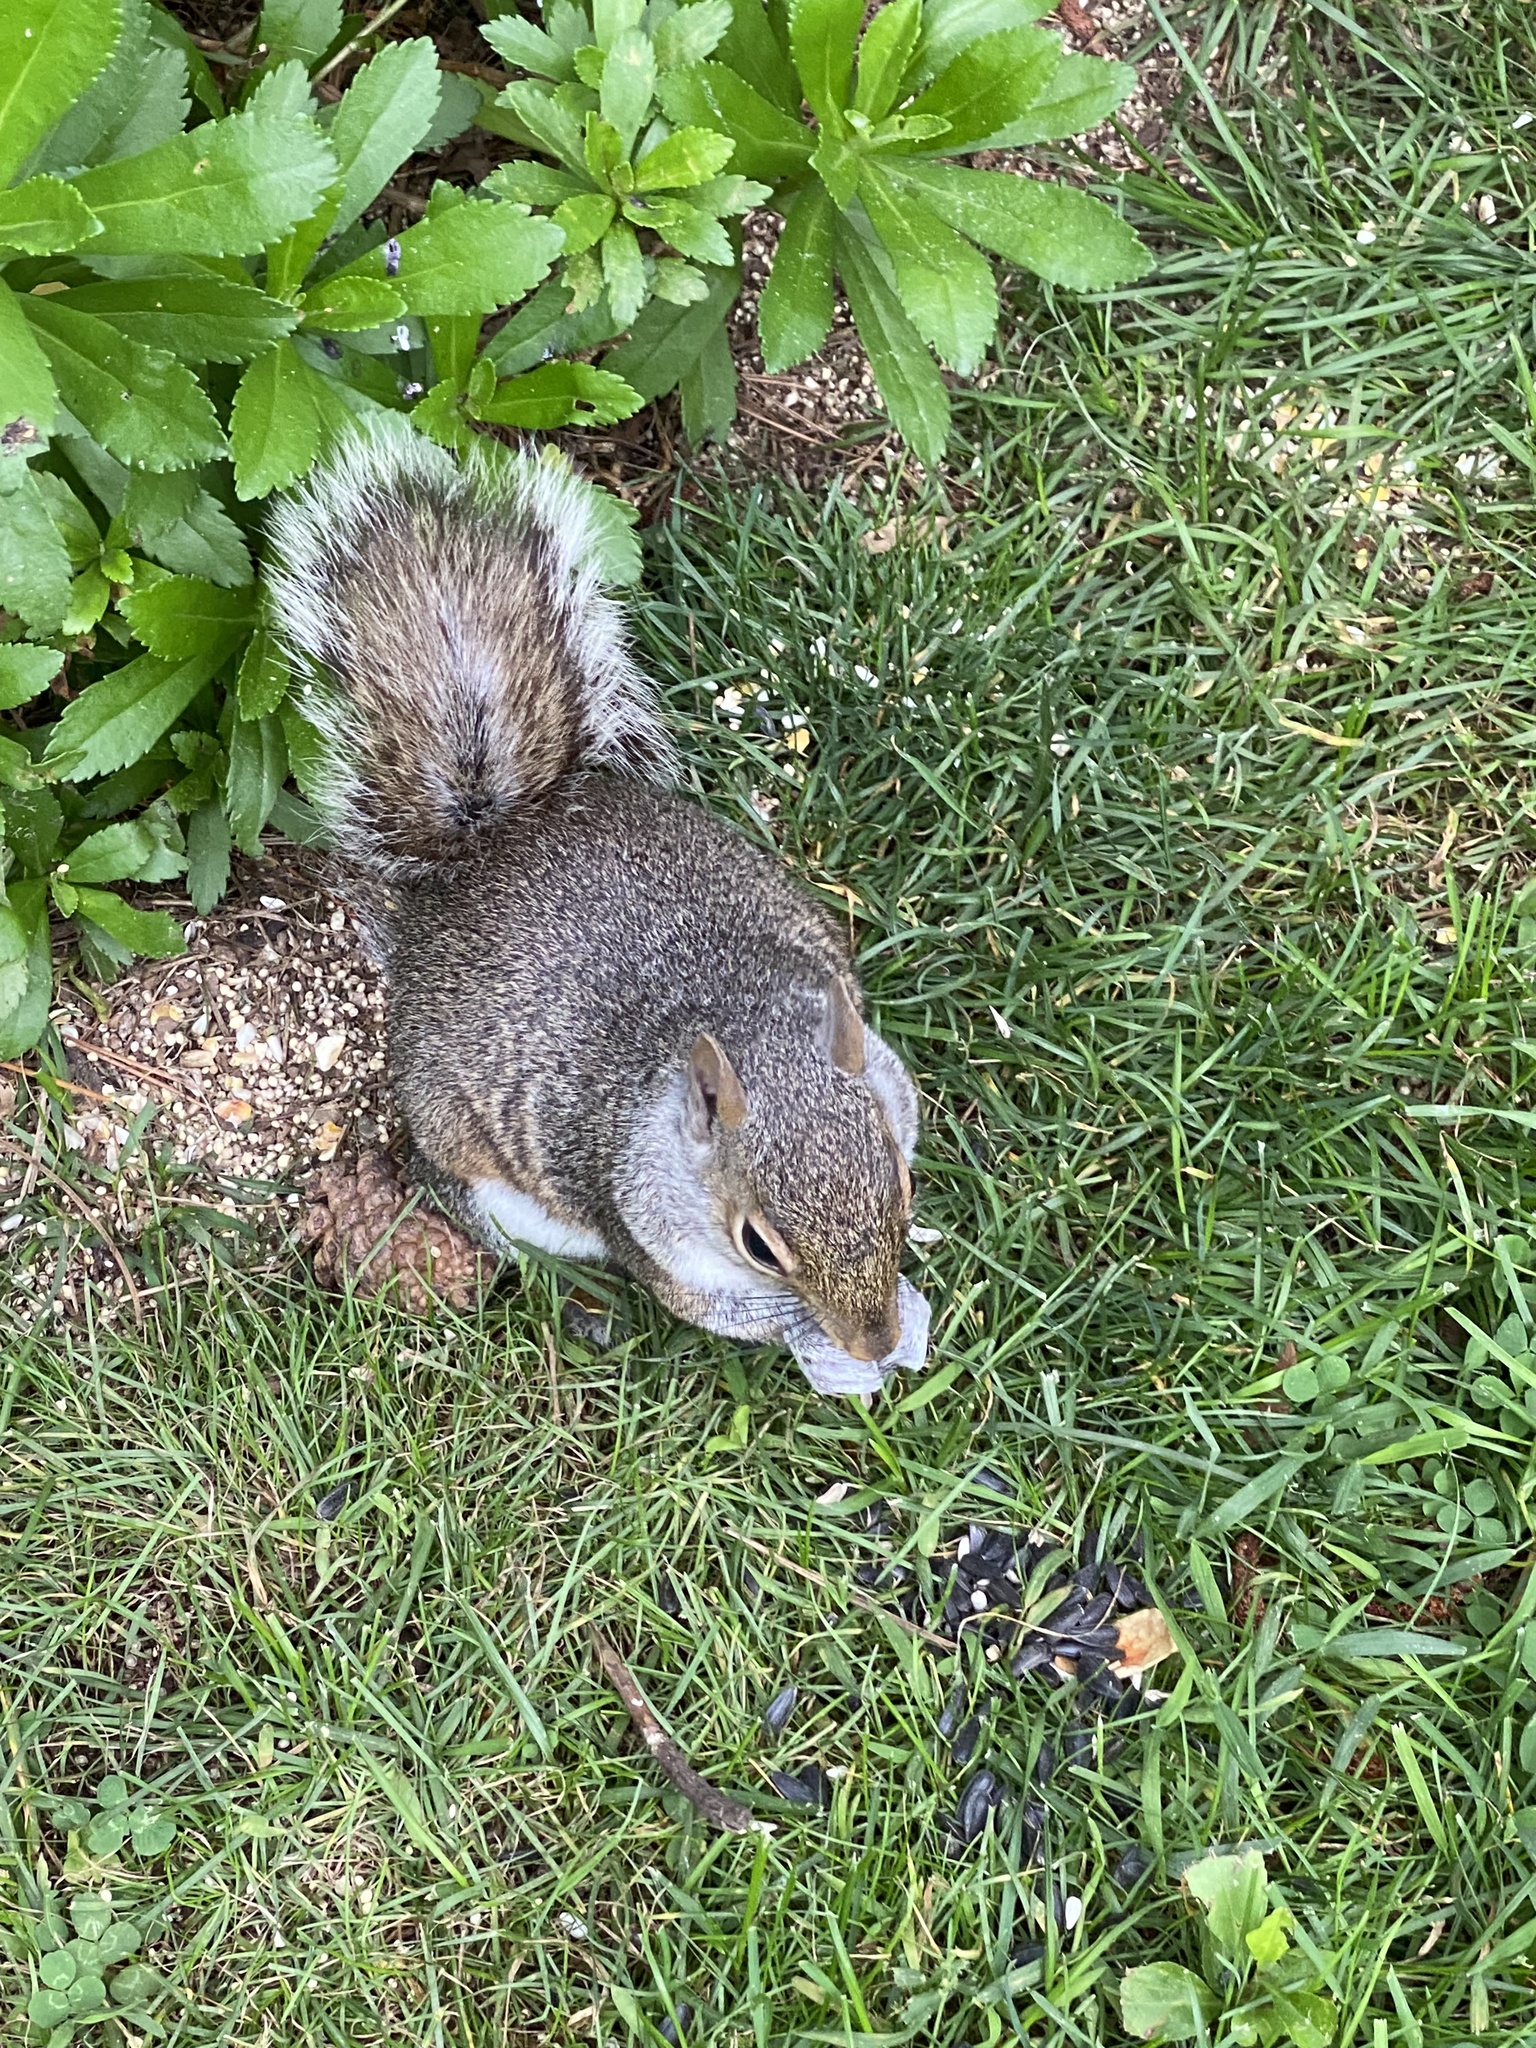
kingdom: Animalia
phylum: Chordata
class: Mammalia
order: Rodentia
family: Sciuridae
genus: Sciurus
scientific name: Sciurus carolinensis
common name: Eastern gray squirrel
